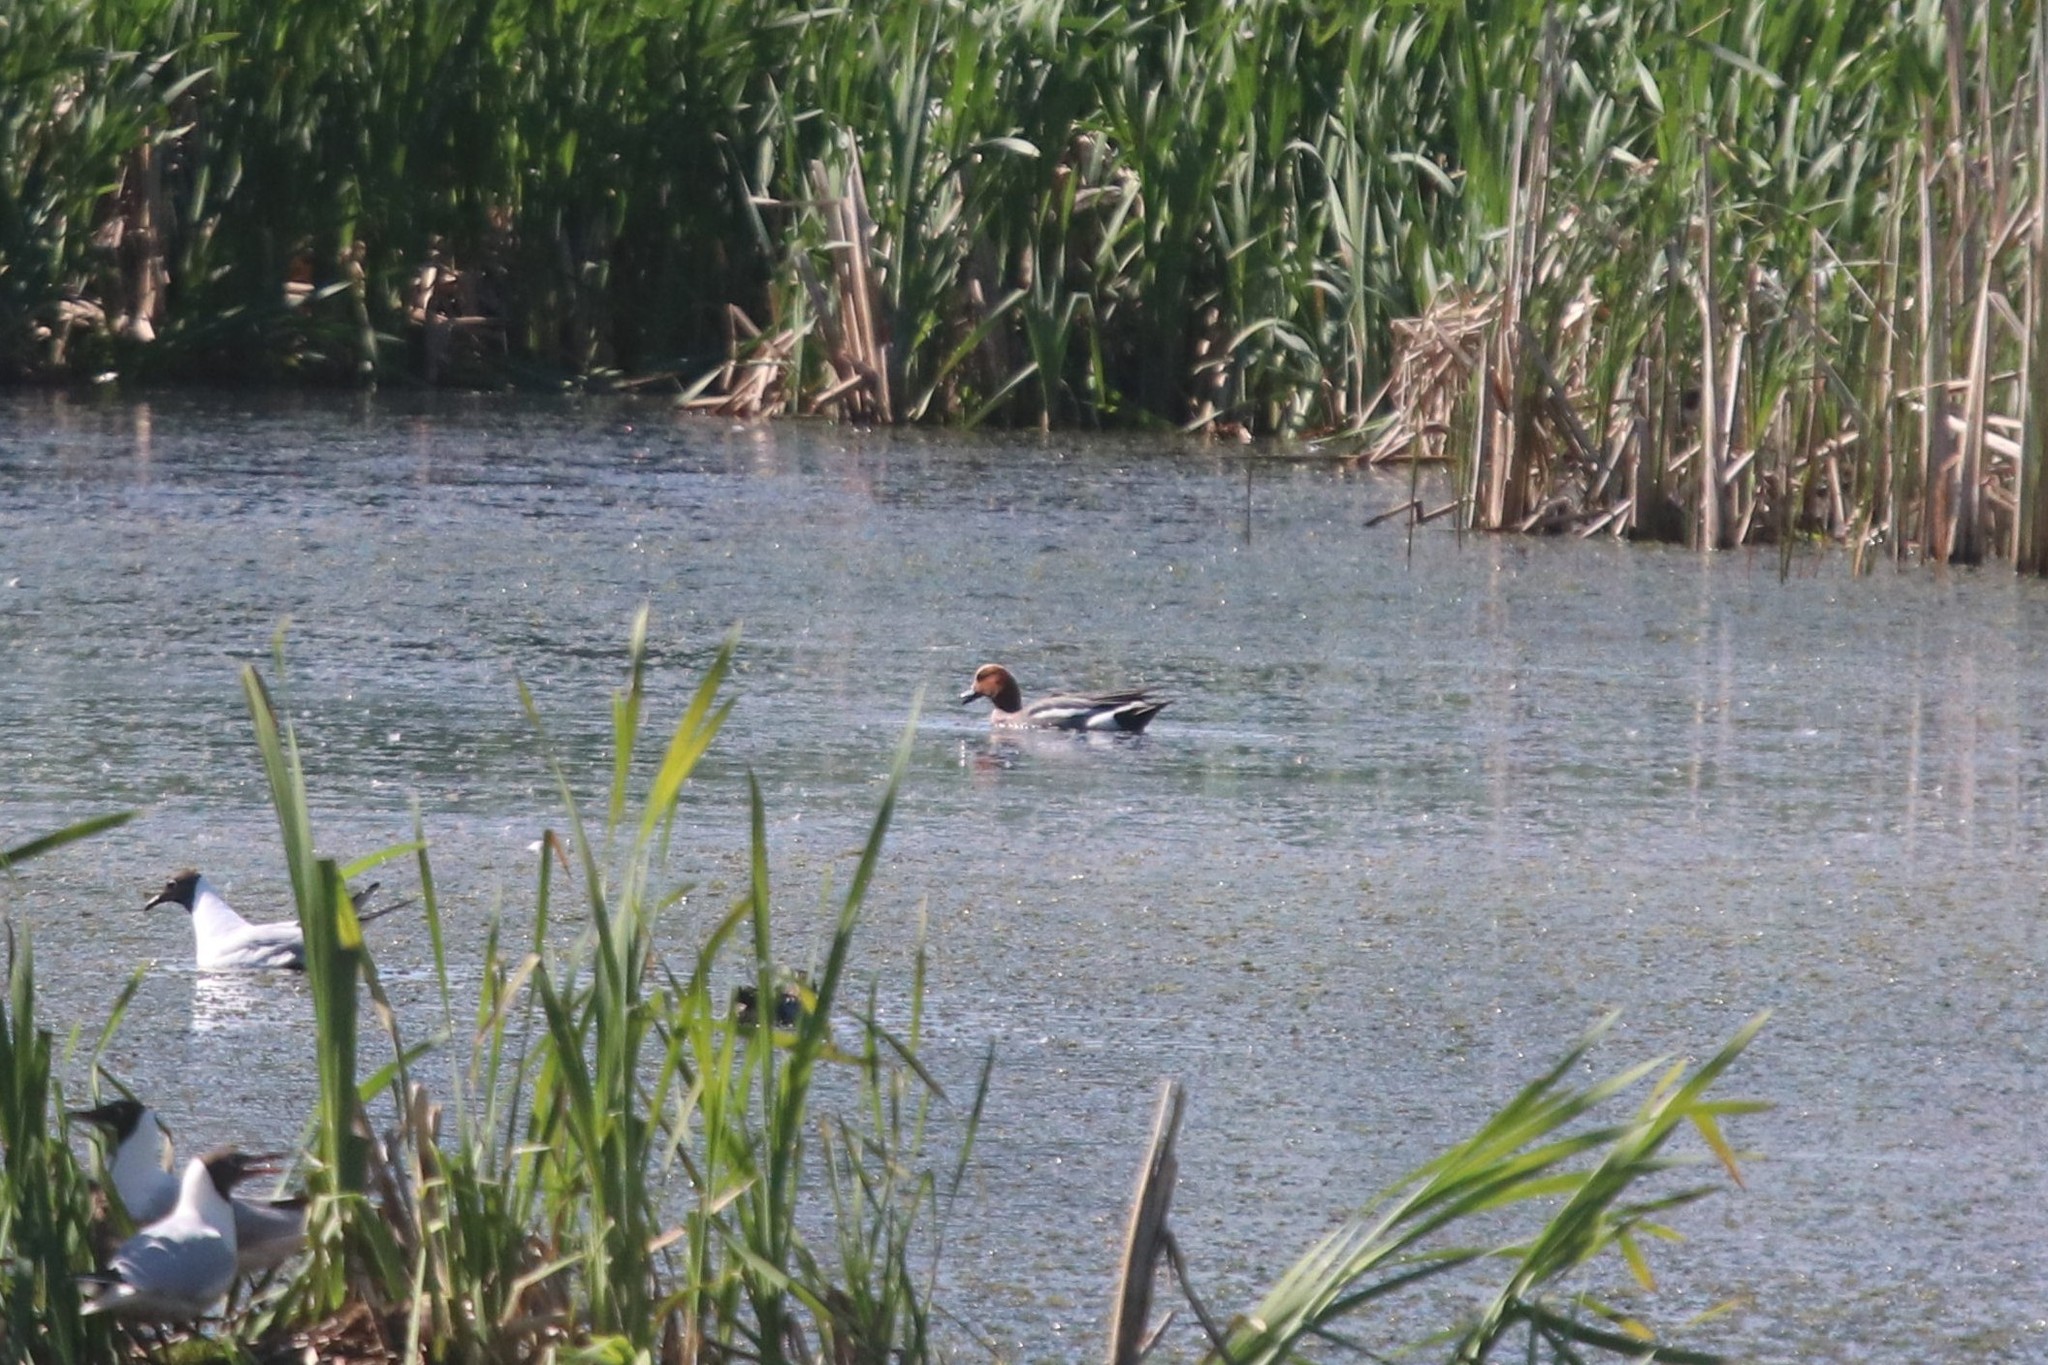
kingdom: Animalia
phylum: Chordata
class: Aves
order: Anseriformes
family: Anatidae
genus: Mareca
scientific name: Mareca penelope
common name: Eurasian wigeon
